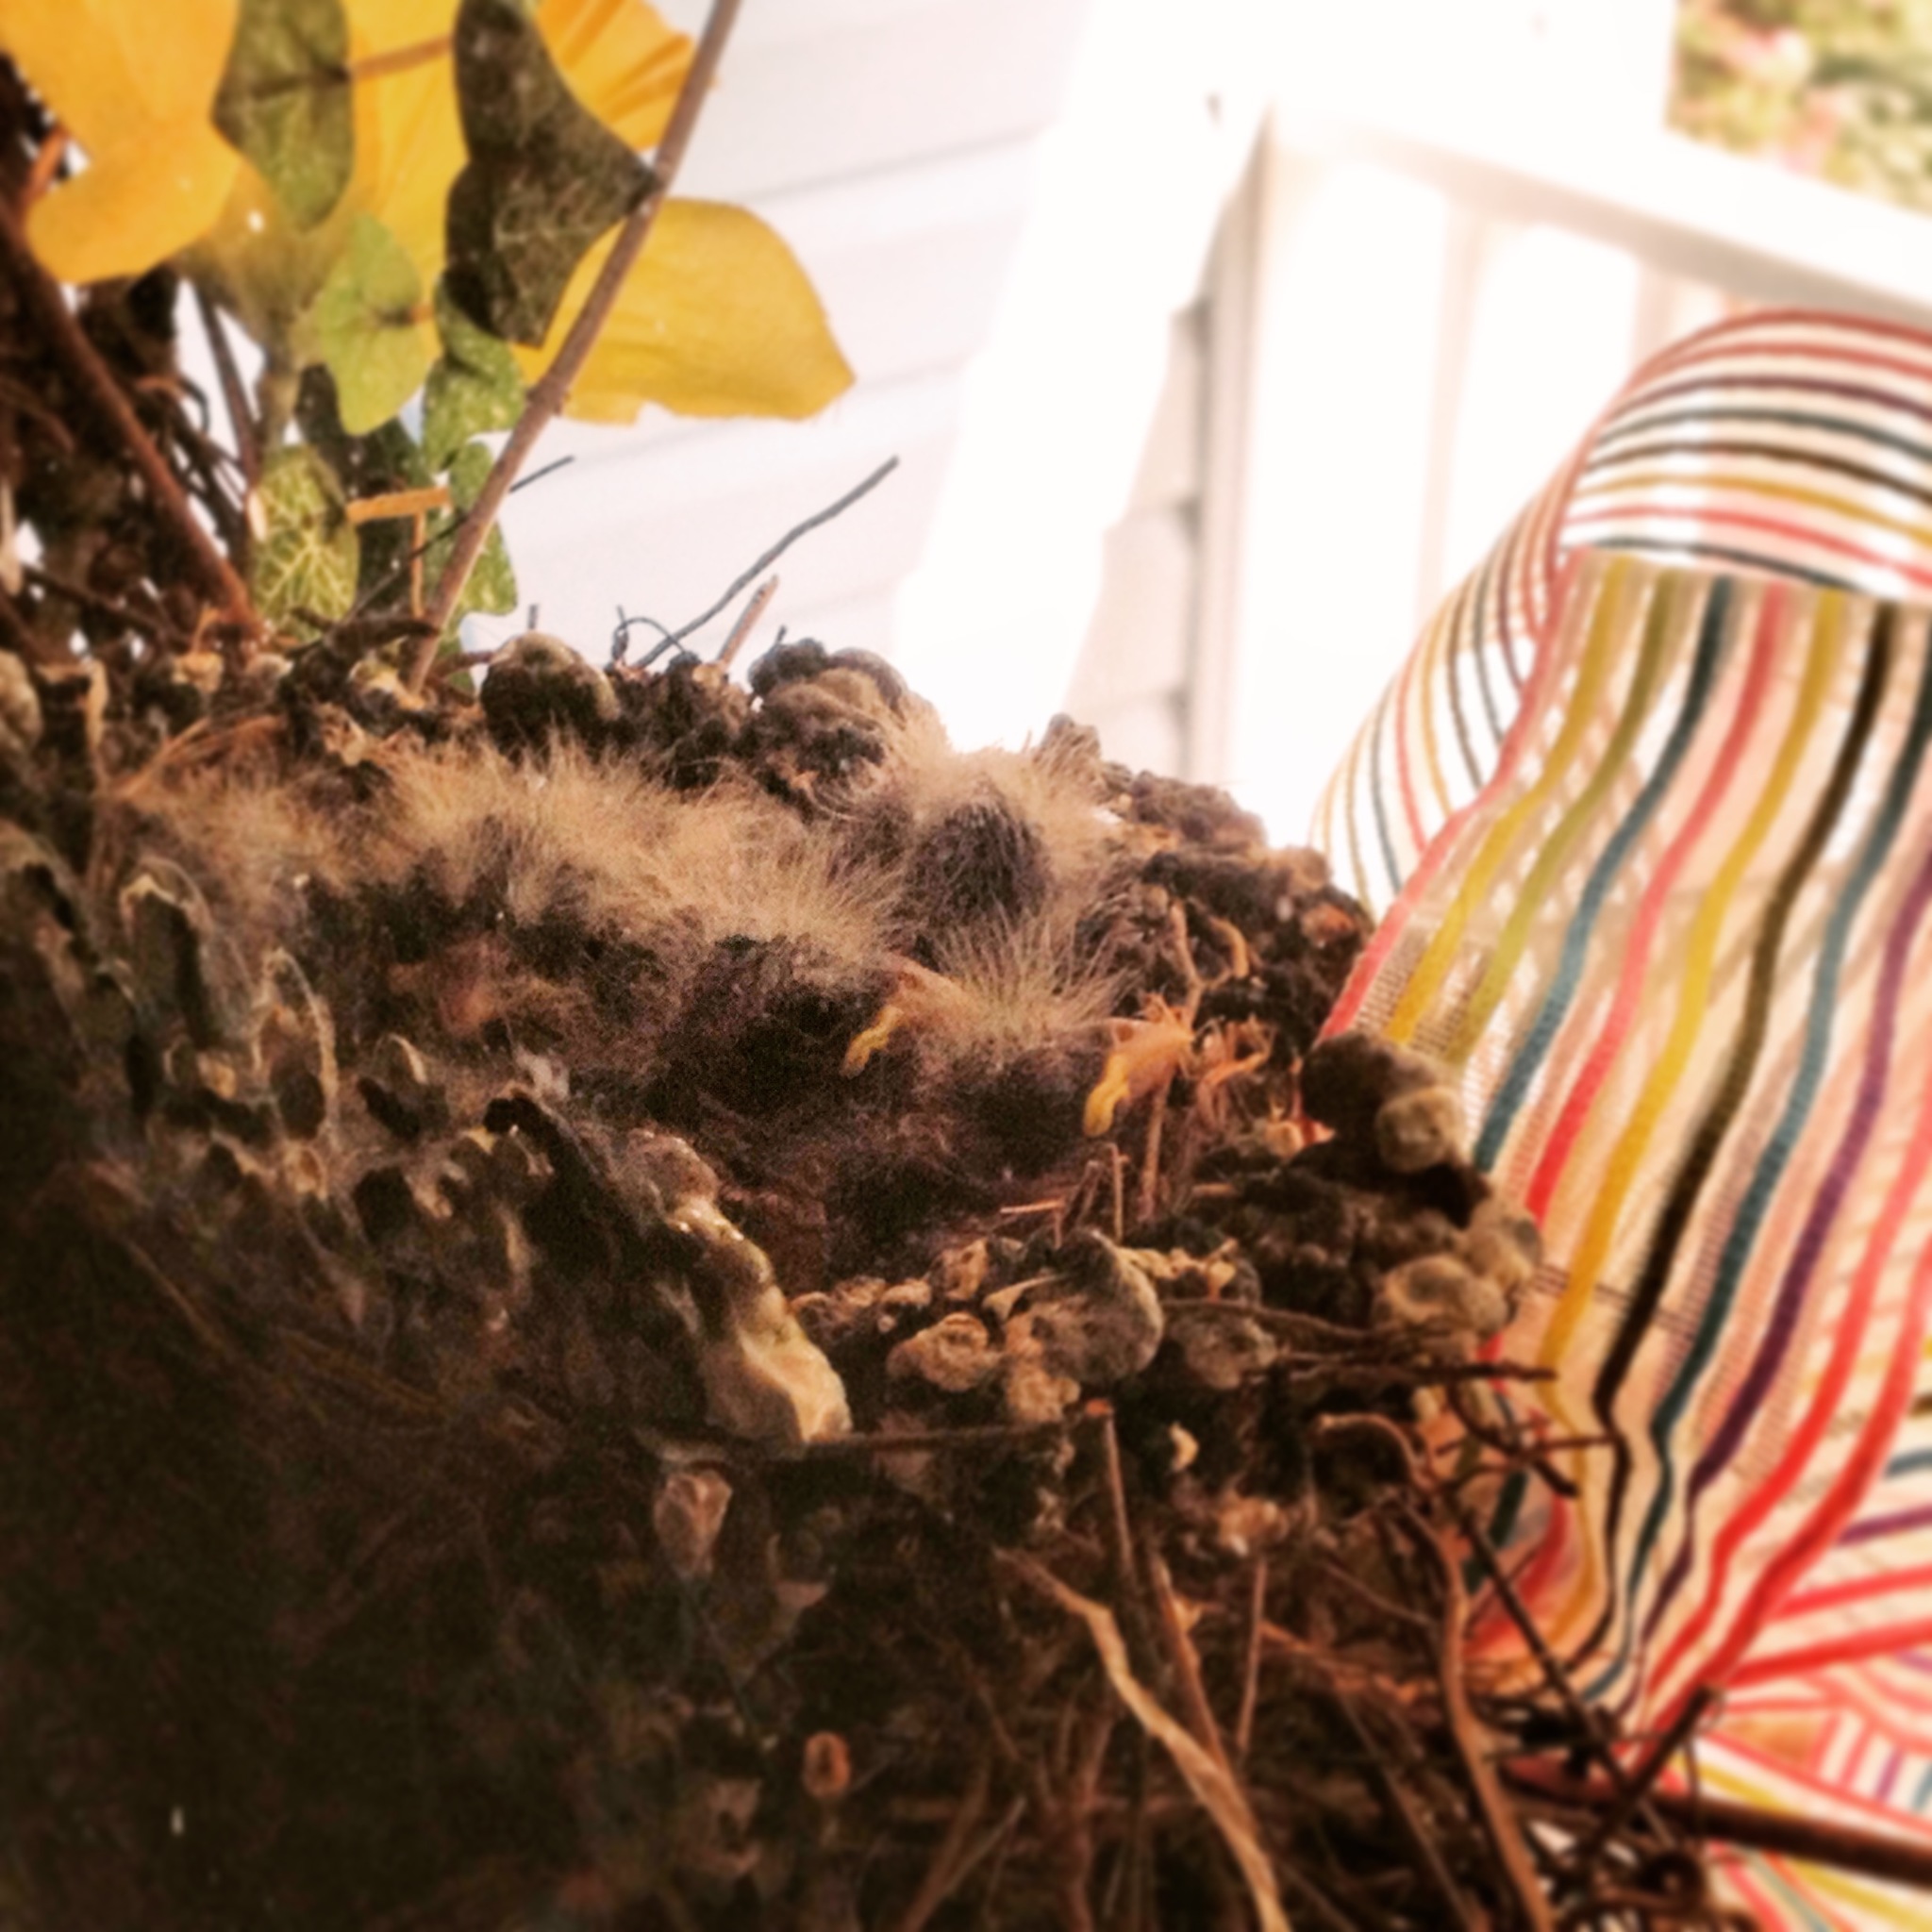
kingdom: Animalia
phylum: Chordata
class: Aves
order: Passeriformes
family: Fringillidae
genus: Haemorhous
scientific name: Haemorhous mexicanus
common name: House finch
